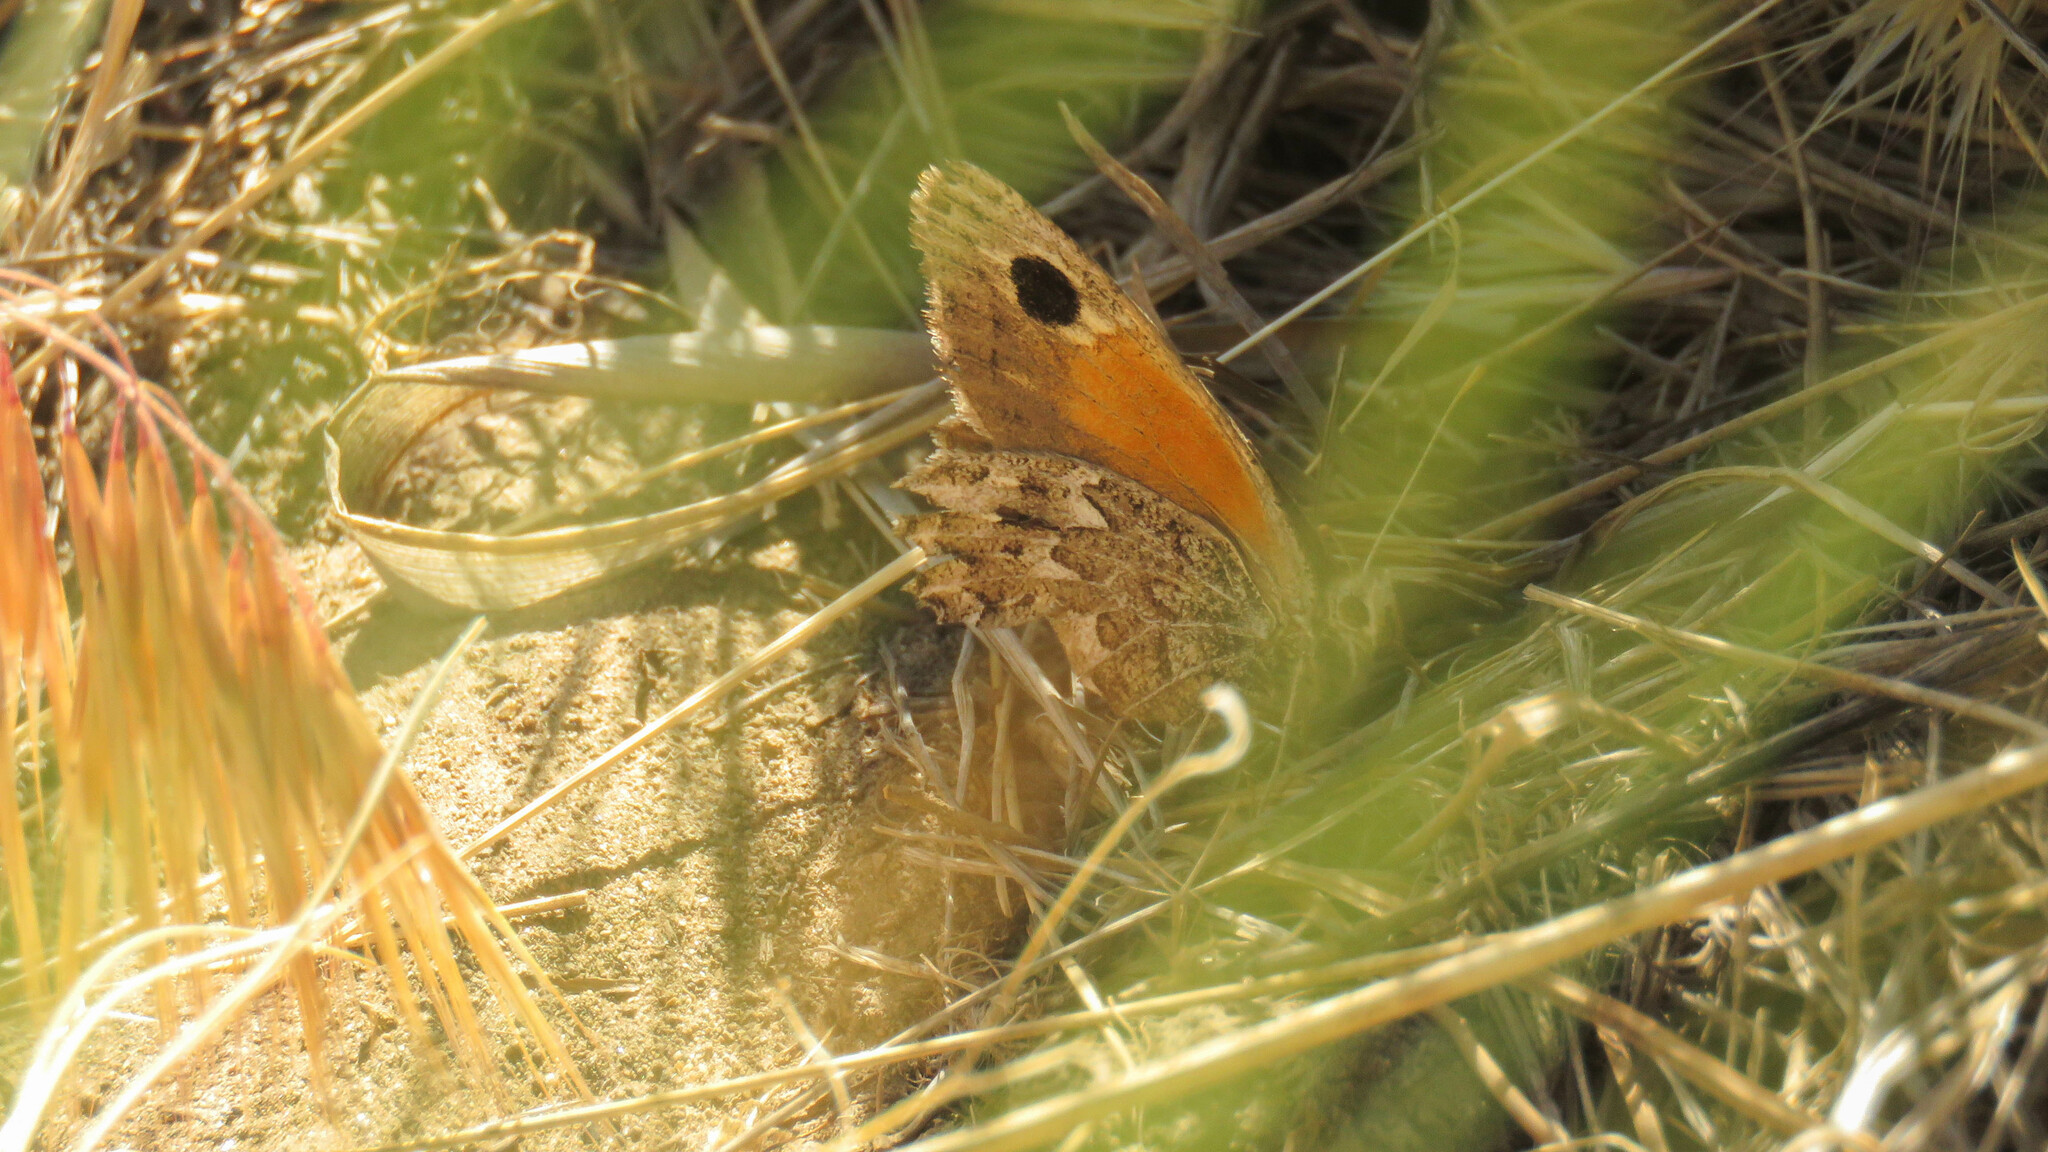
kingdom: Animalia
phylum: Arthropoda
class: Insecta
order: Lepidoptera
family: Nymphalidae
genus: Argyrophorus
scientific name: Argyrophorus
